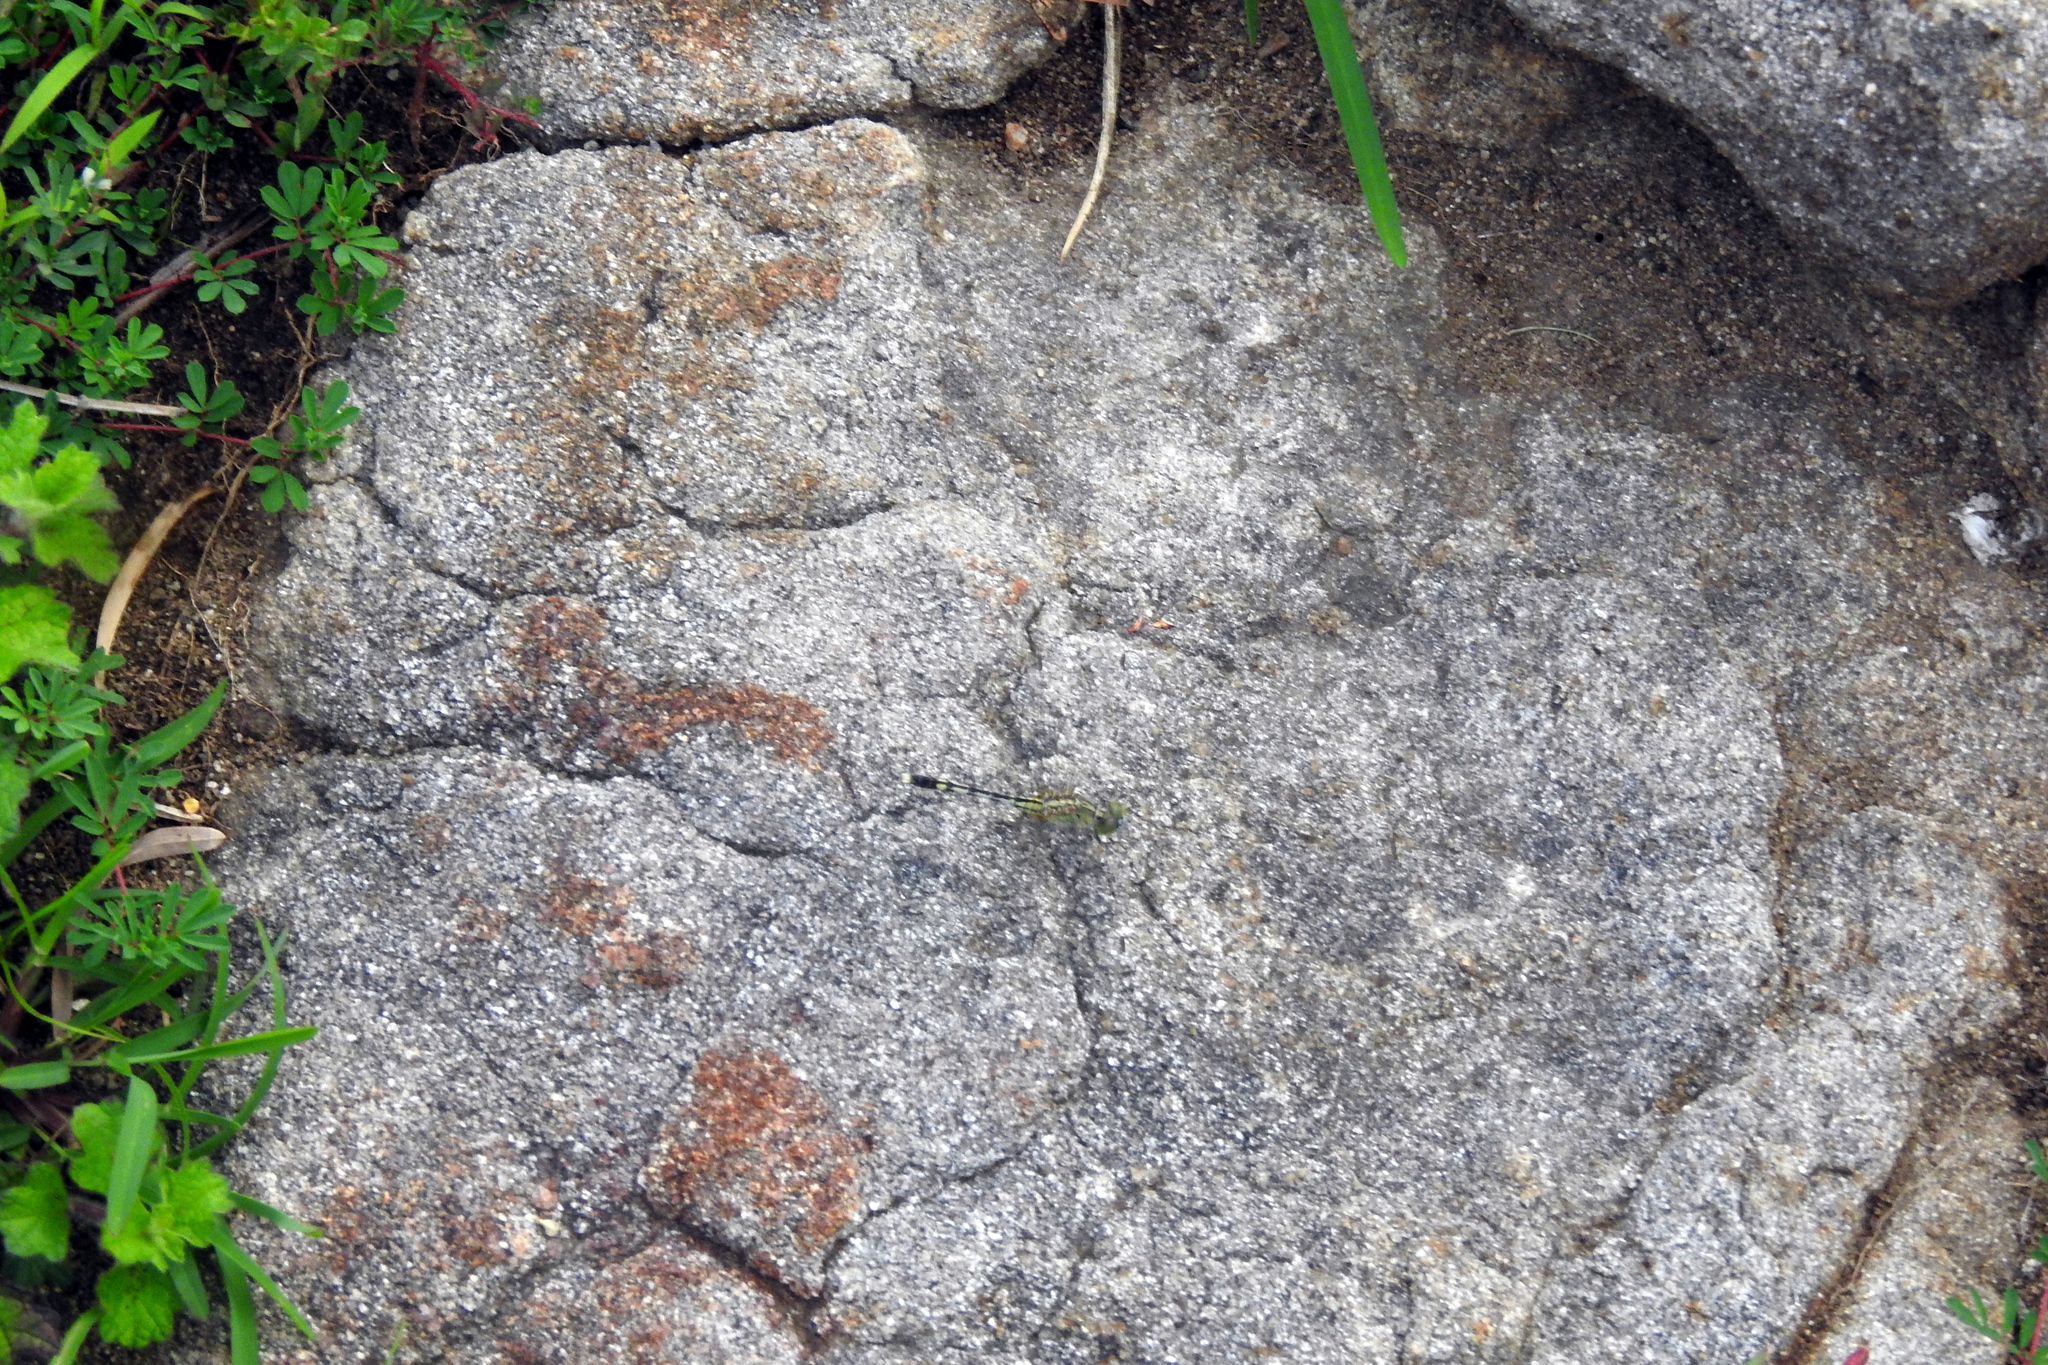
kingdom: Animalia
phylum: Arthropoda
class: Insecta
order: Odonata
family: Libellulidae
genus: Diplacodes
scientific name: Diplacodes trivialis
